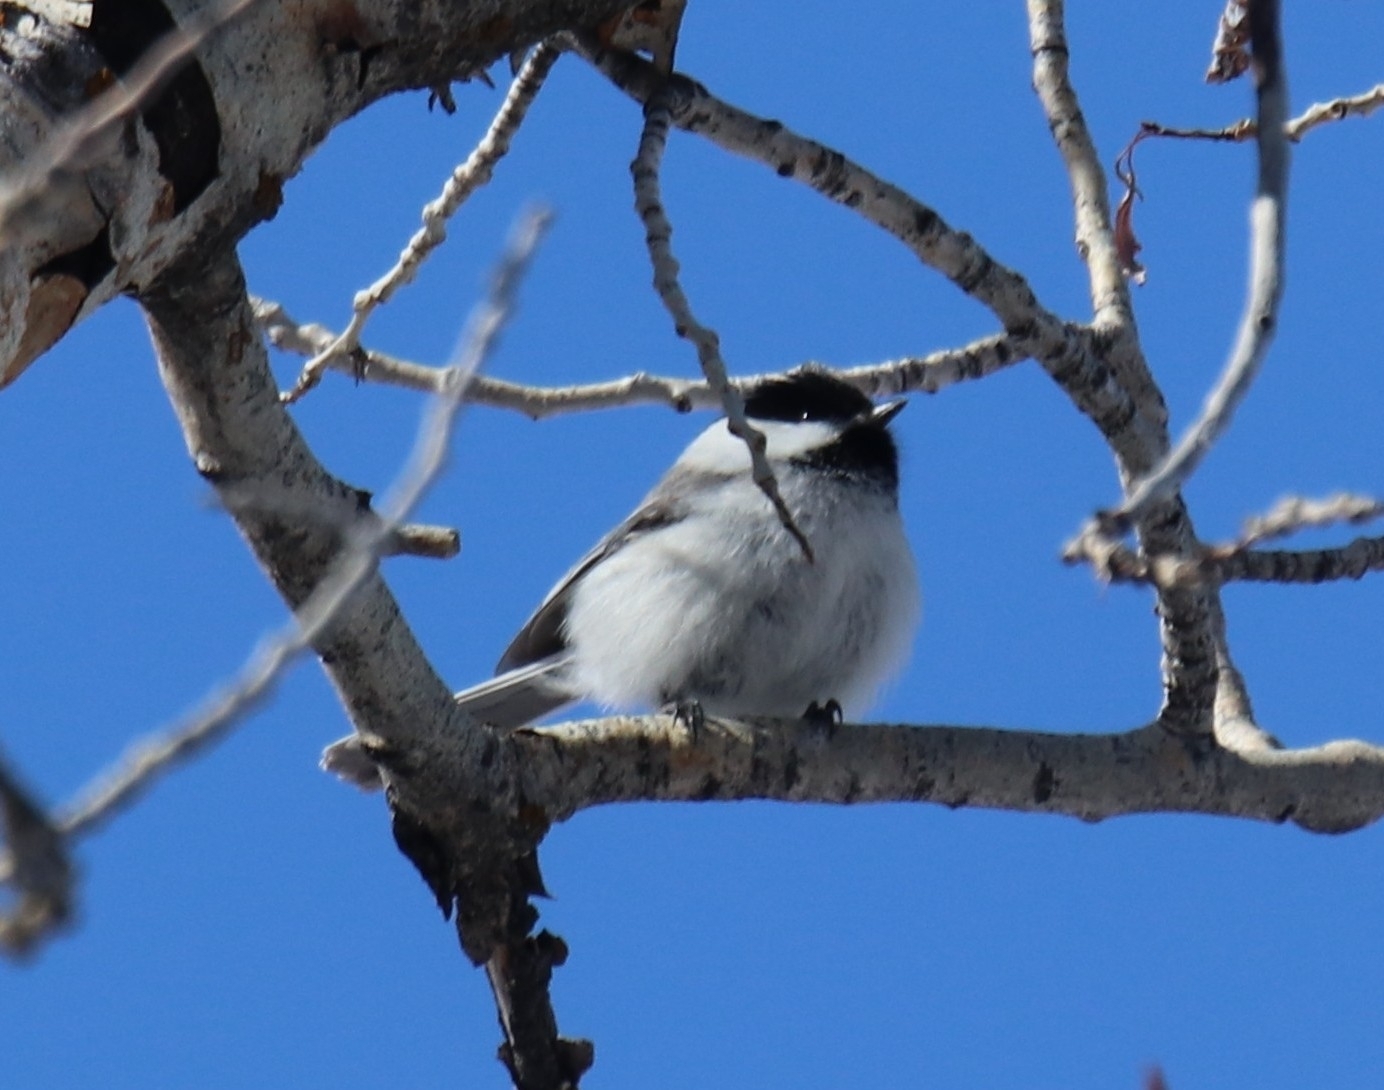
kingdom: Animalia
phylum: Chordata
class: Aves
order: Passeriformes
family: Paridae
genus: Poecile
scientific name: Poecile atricapillus
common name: Black-capped chickadee
